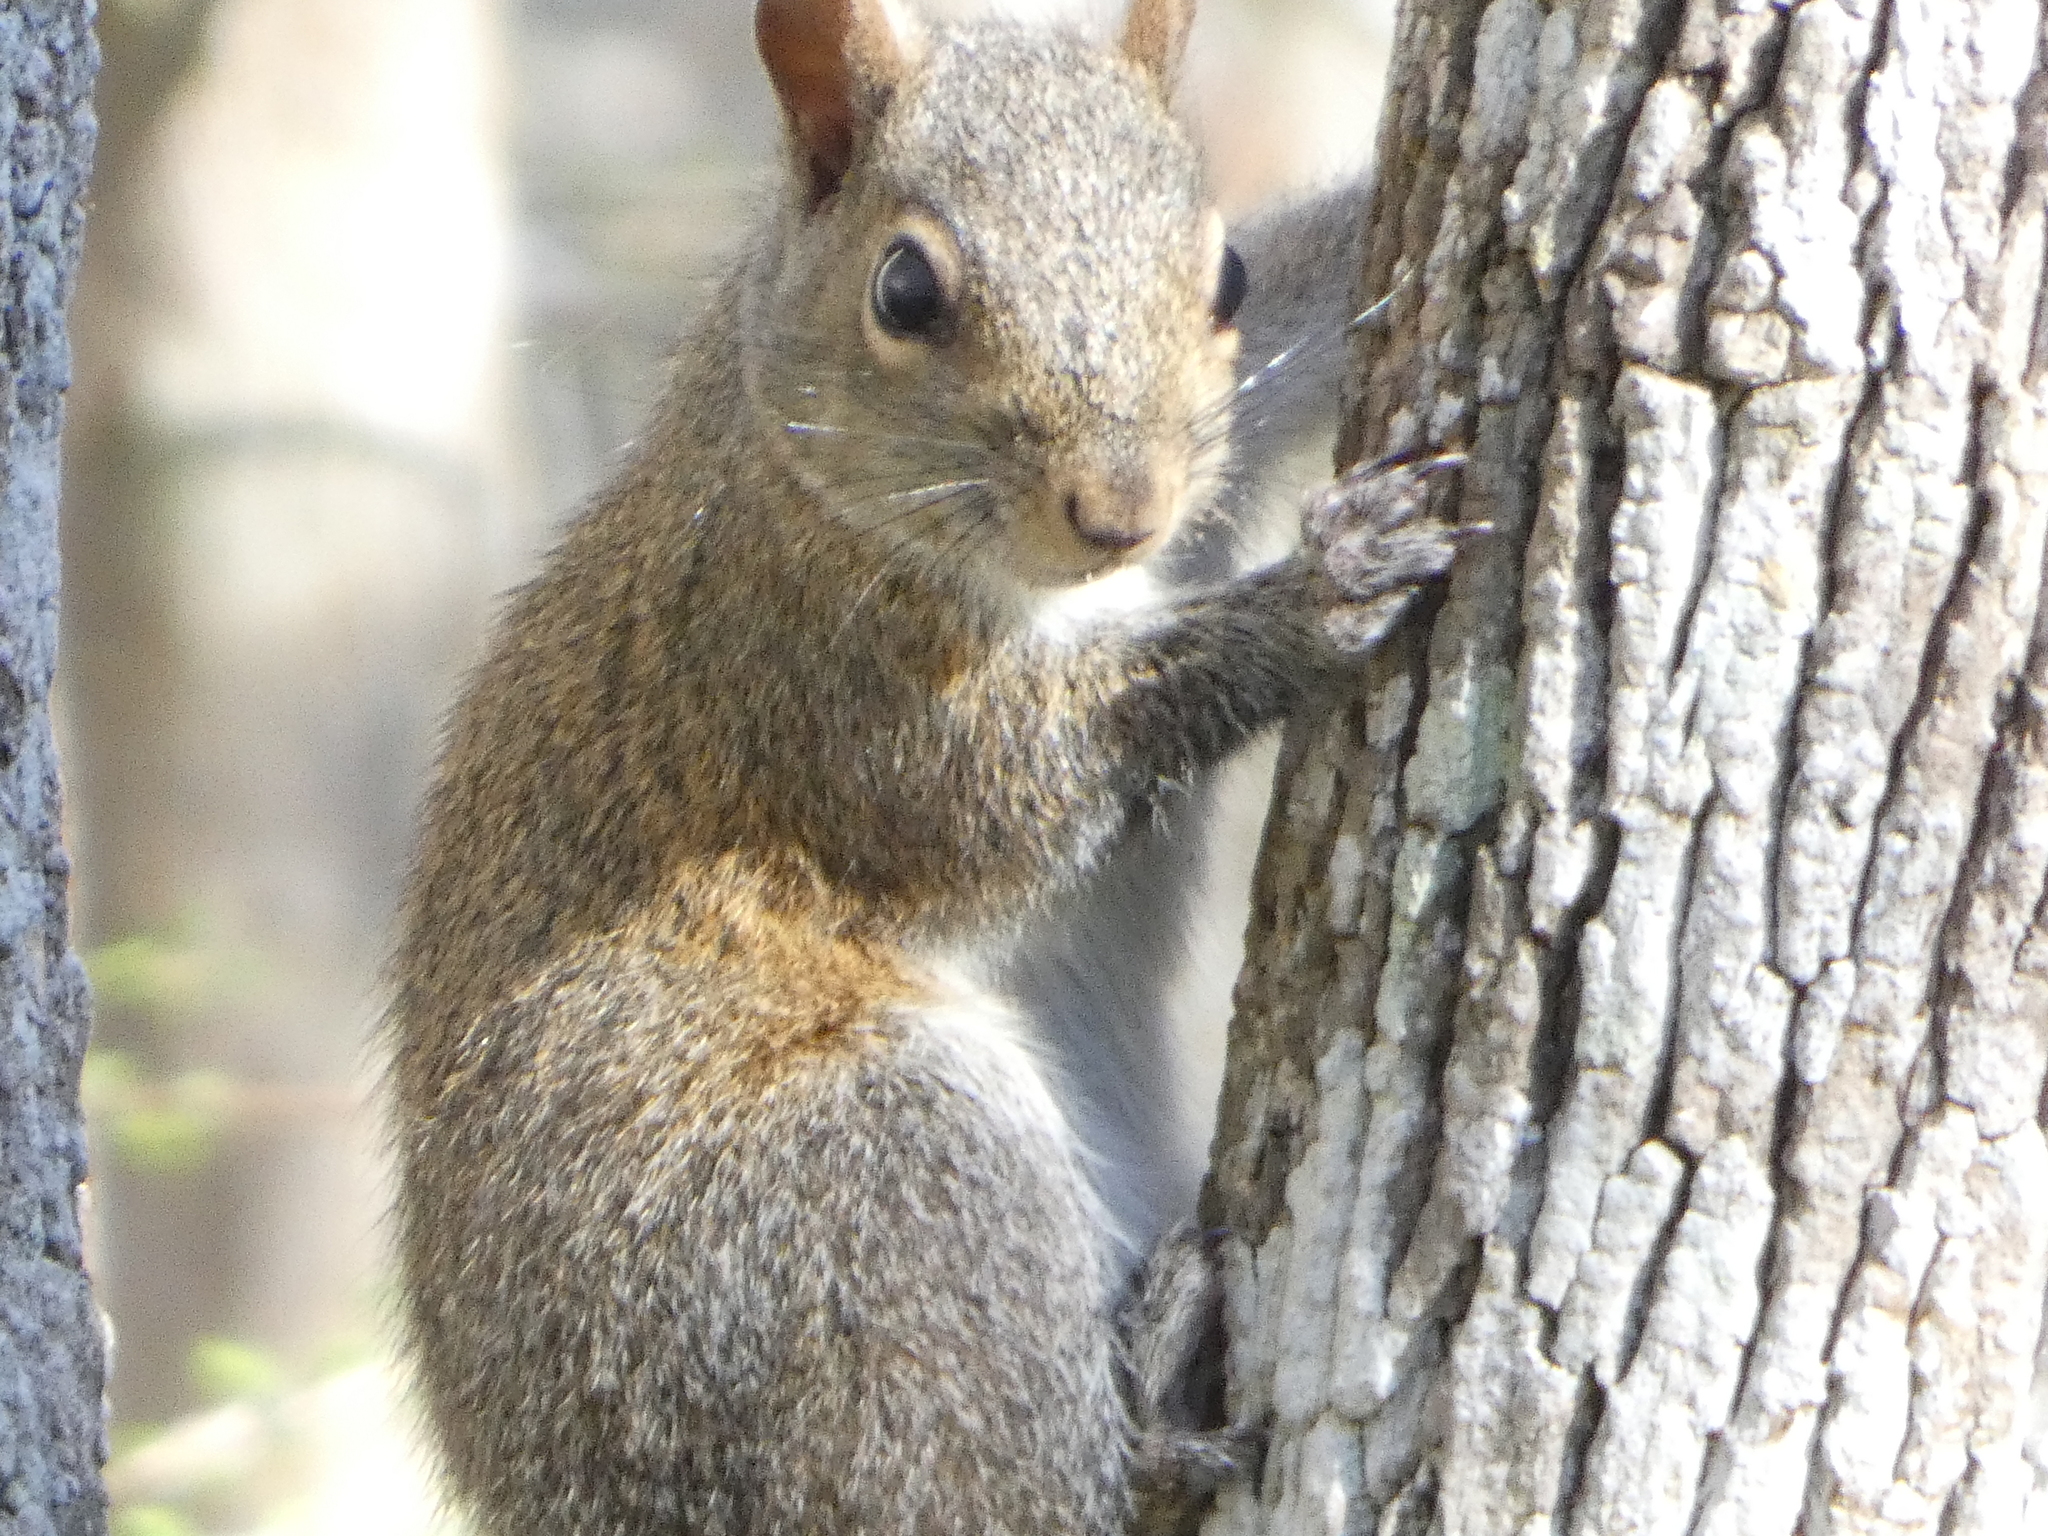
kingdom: Animalia
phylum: Chordata
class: Mammalia
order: Rodentia
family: Sciuridae
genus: Sciurus
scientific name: Sciurus carolinensis
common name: Eastern gray squirrel
